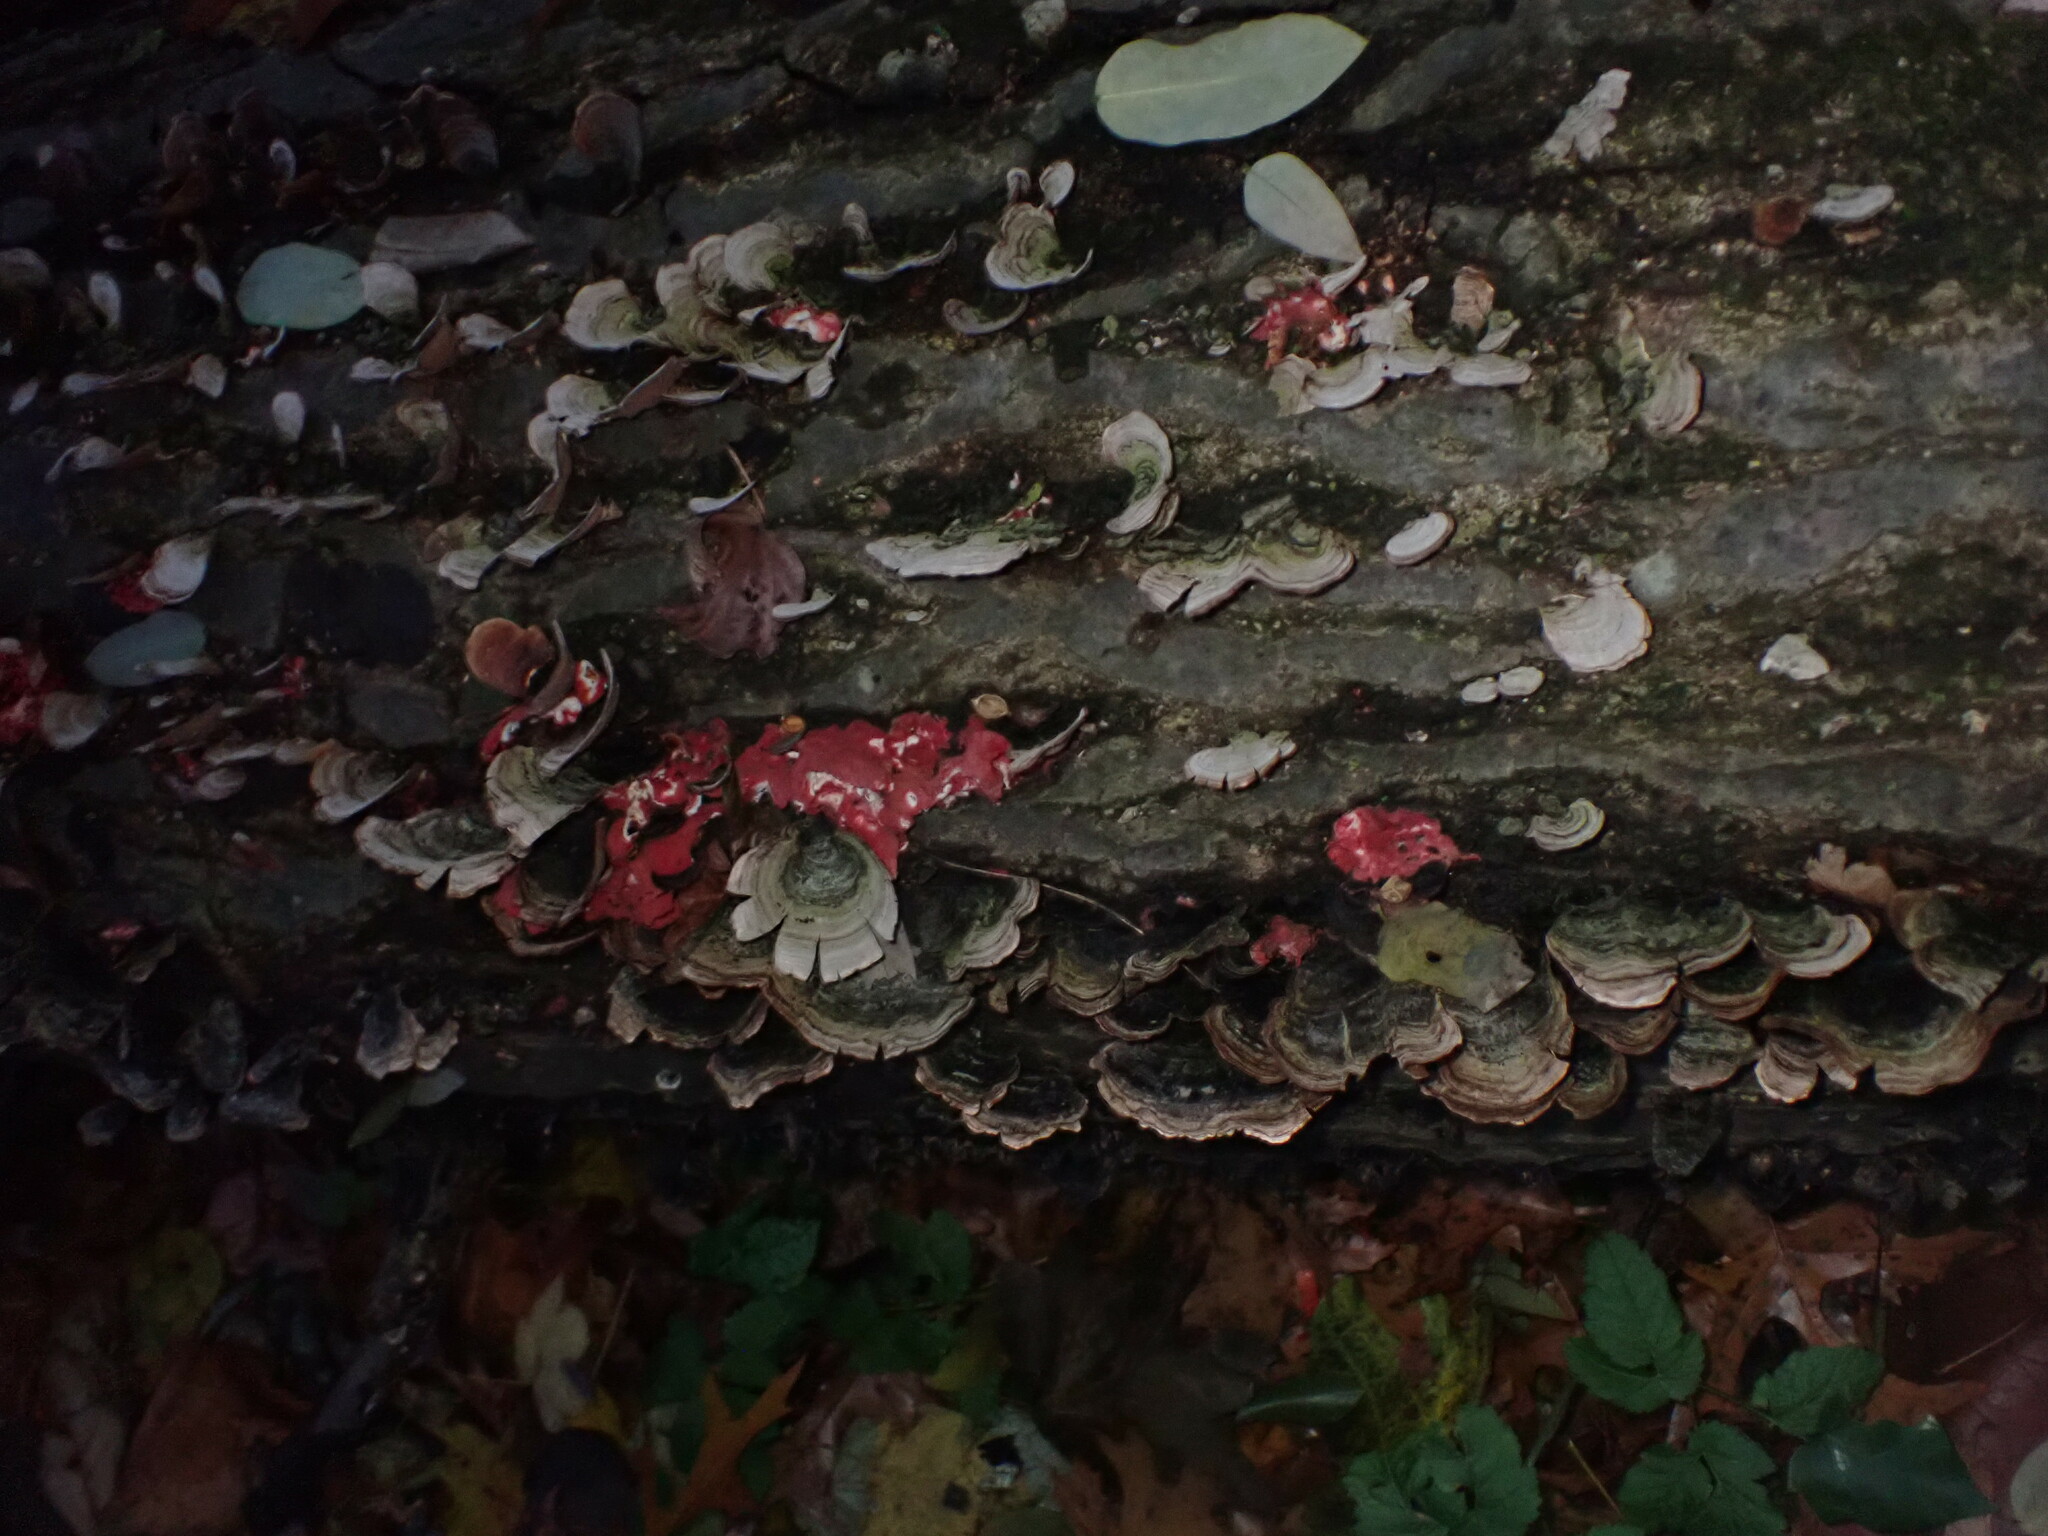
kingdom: Fungi
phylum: Basidiomycota
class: Agaricomycetes
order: Polyporales
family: Irpicaceae
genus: Byssomerulius
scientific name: Byssomerulius incarnatus
